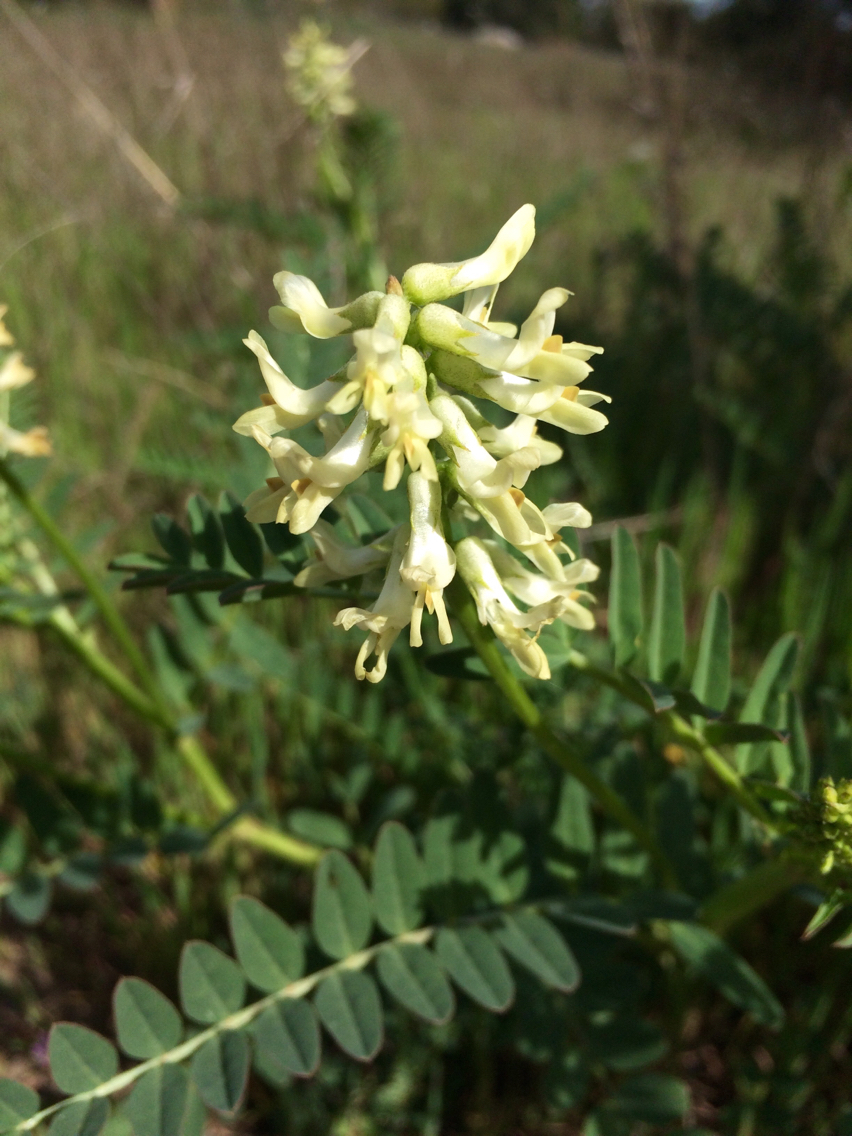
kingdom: Plantae
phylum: Tracheophyta
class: Magnoliopsida
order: Fabales
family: Fabaceae
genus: Astragalus
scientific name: Astragalus pomonensis
